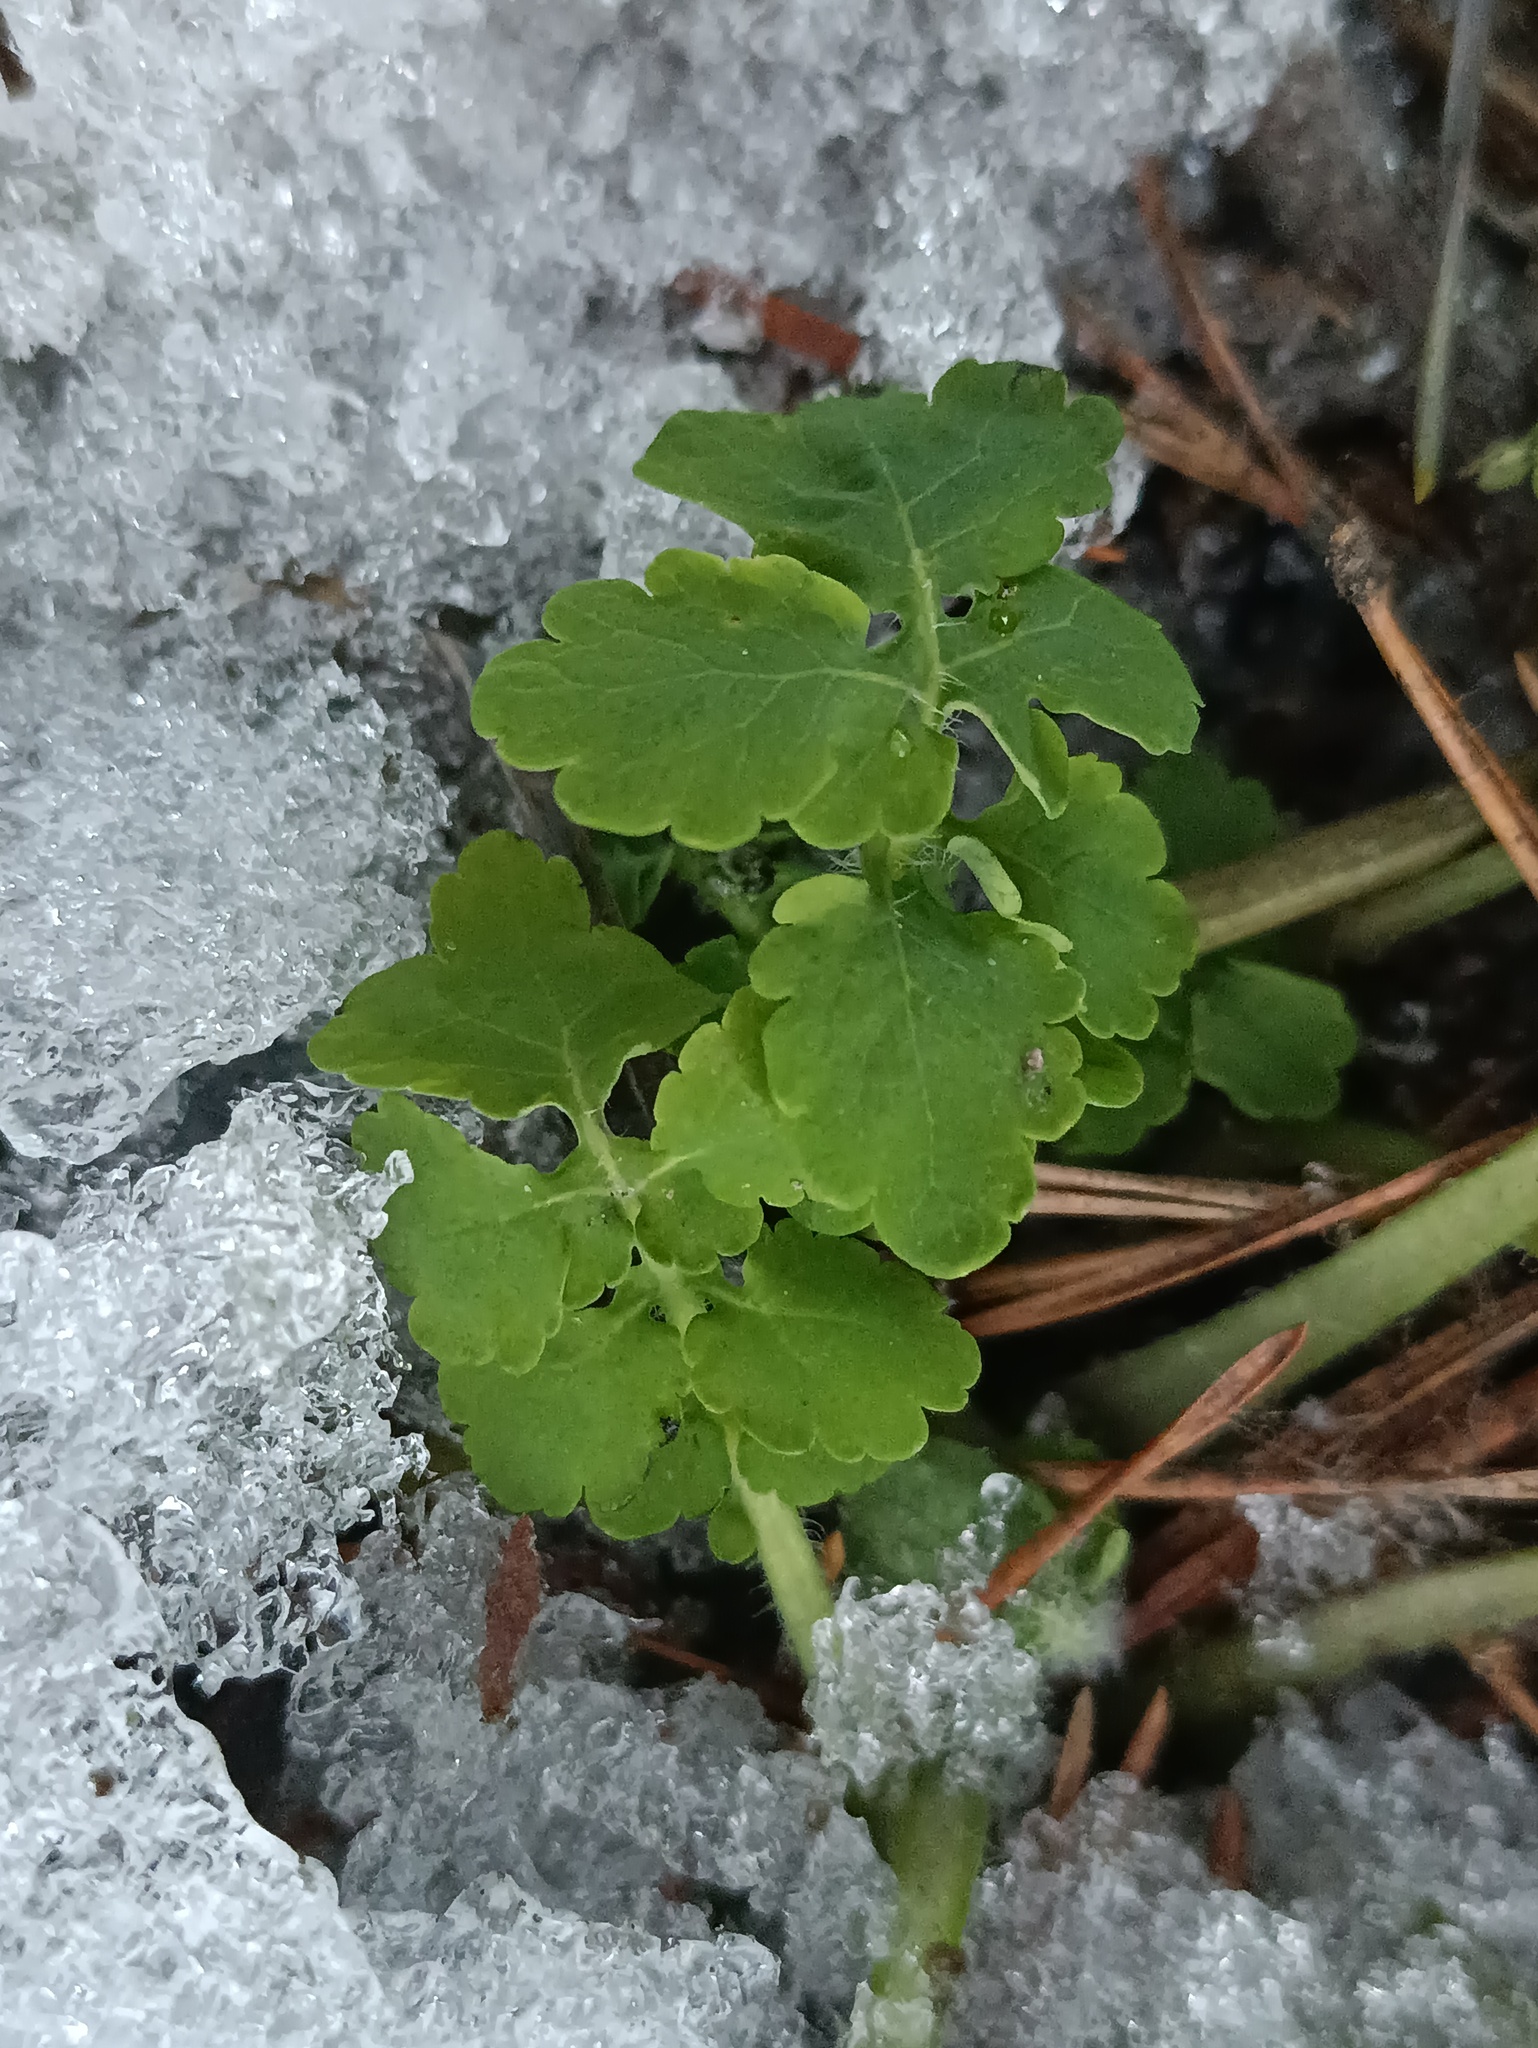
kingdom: Plantae
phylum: Tracheophyta
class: Magnoliopsida
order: Ranunculales
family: Papaveraceae
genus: Chelidonium
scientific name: Chelidonium majus
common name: Greater celandine
